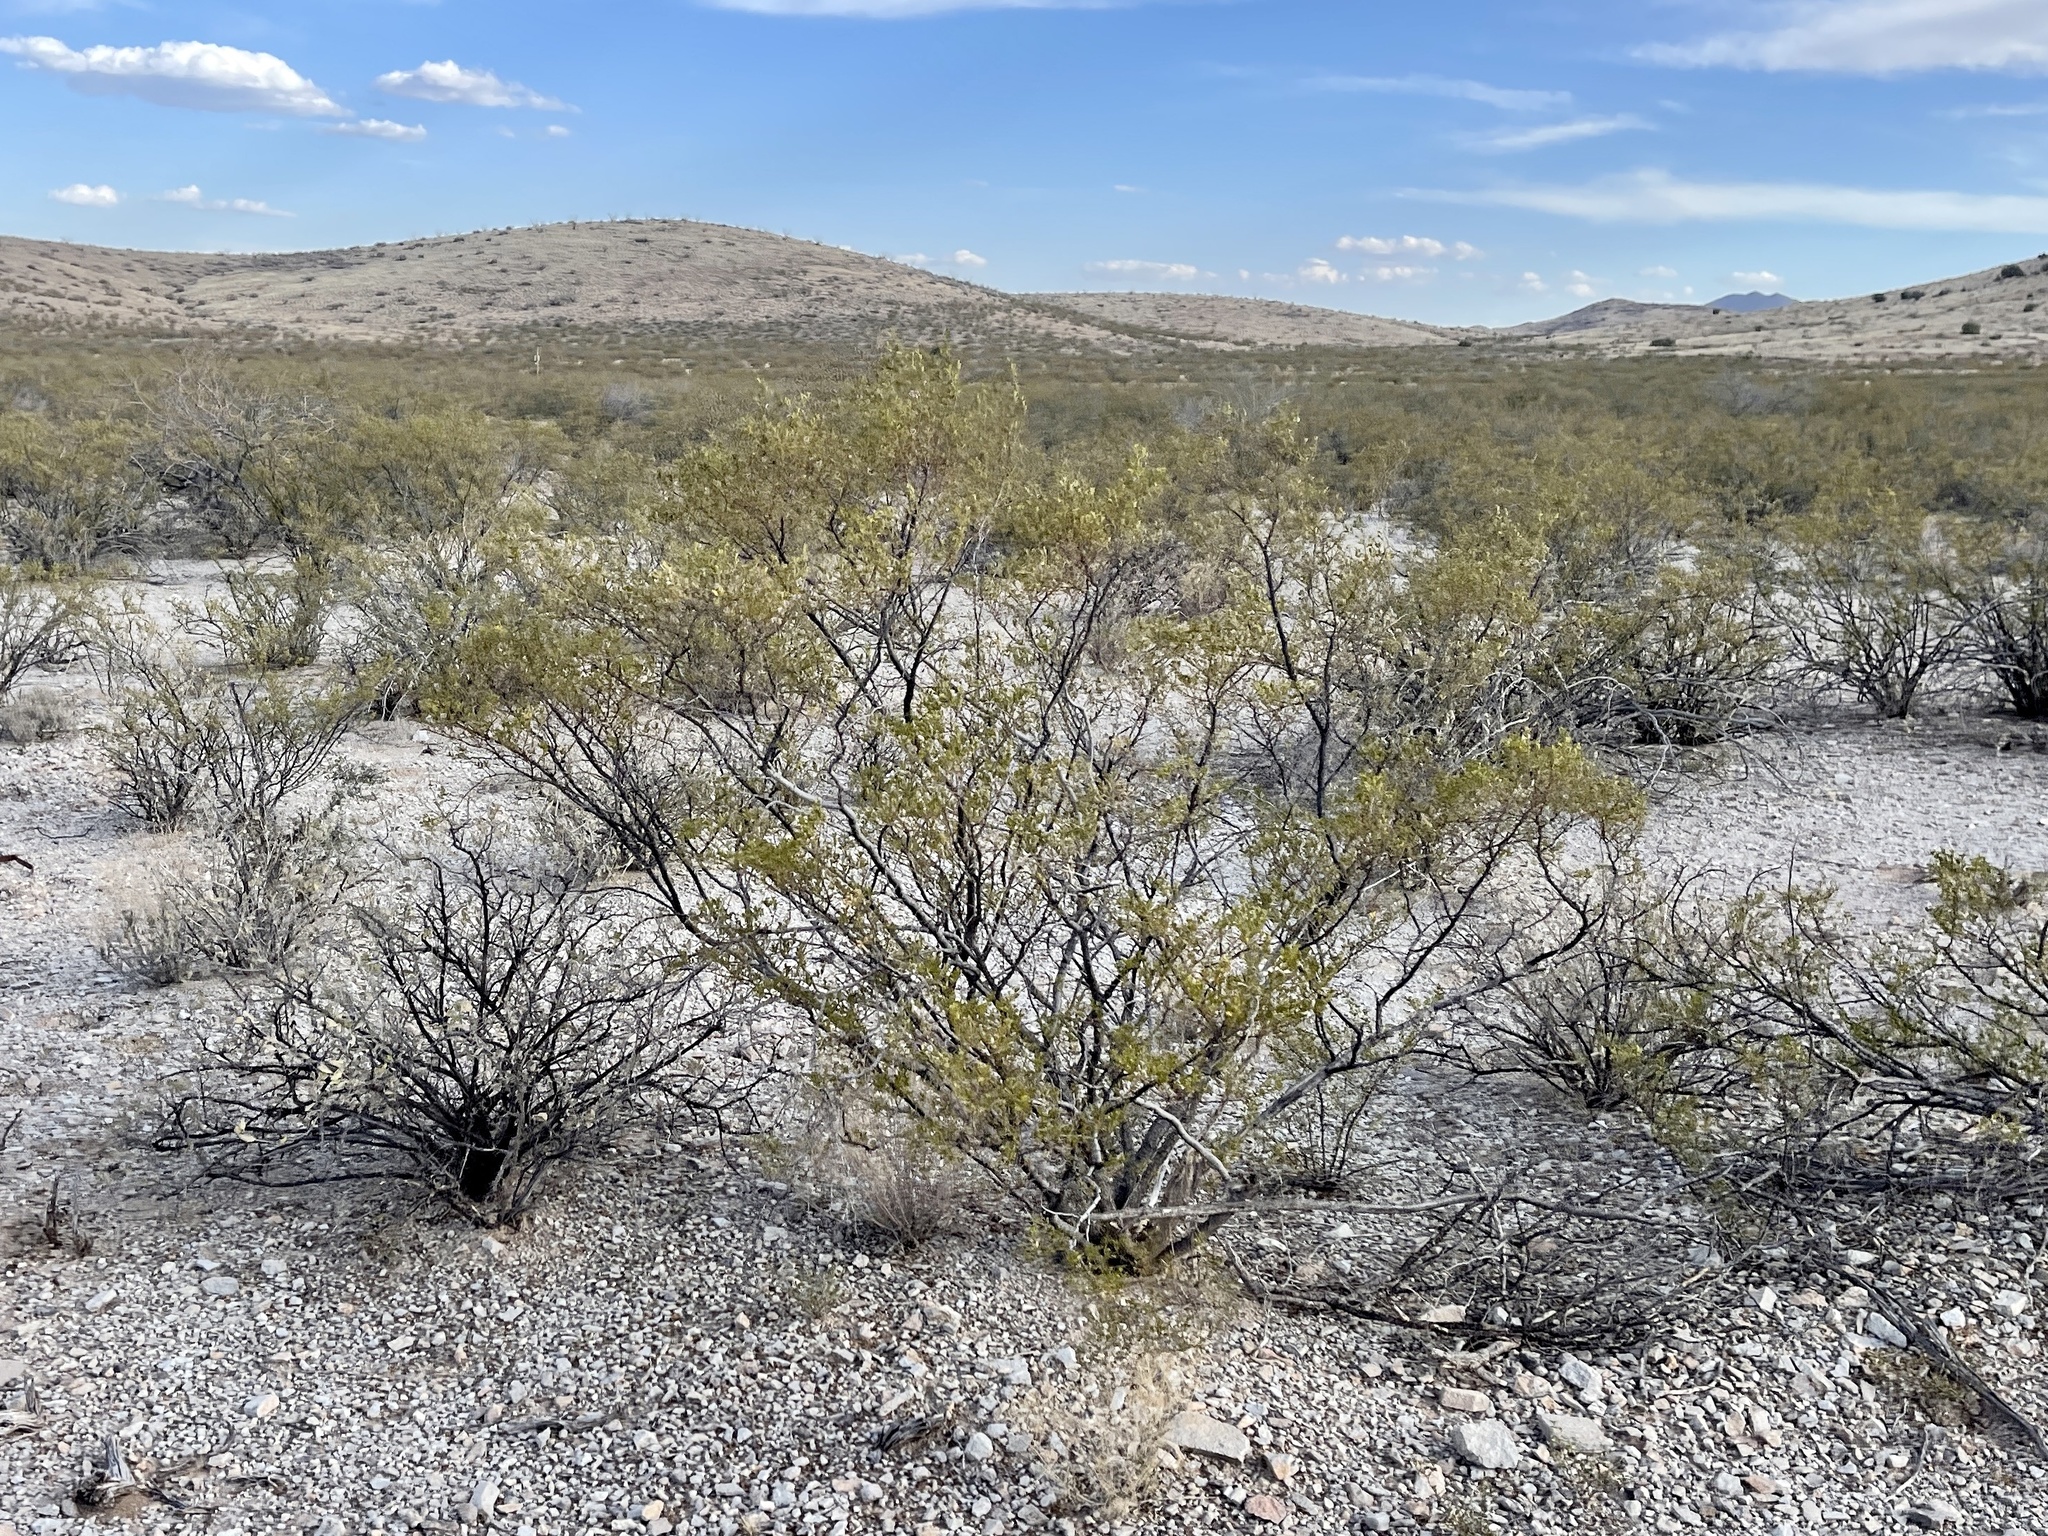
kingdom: Plantae
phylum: Tracheophyta
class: Magnoliopsida
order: Zygophyllales
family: Zygophyllaceae
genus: Larrea
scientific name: Larrea tridentata
